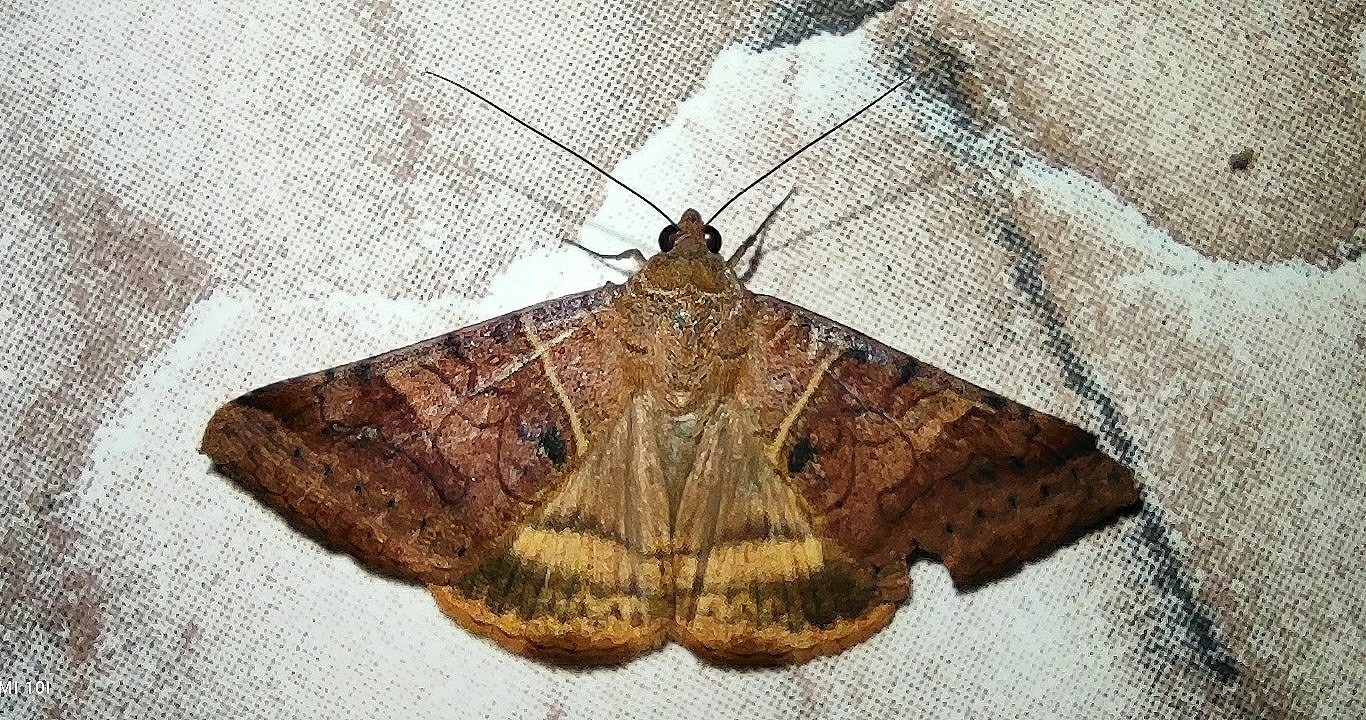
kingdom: Animalia
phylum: Arthropoda
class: Insecta
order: Lepidoptera
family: Erebidae
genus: Mocis
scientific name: Mocis undata
